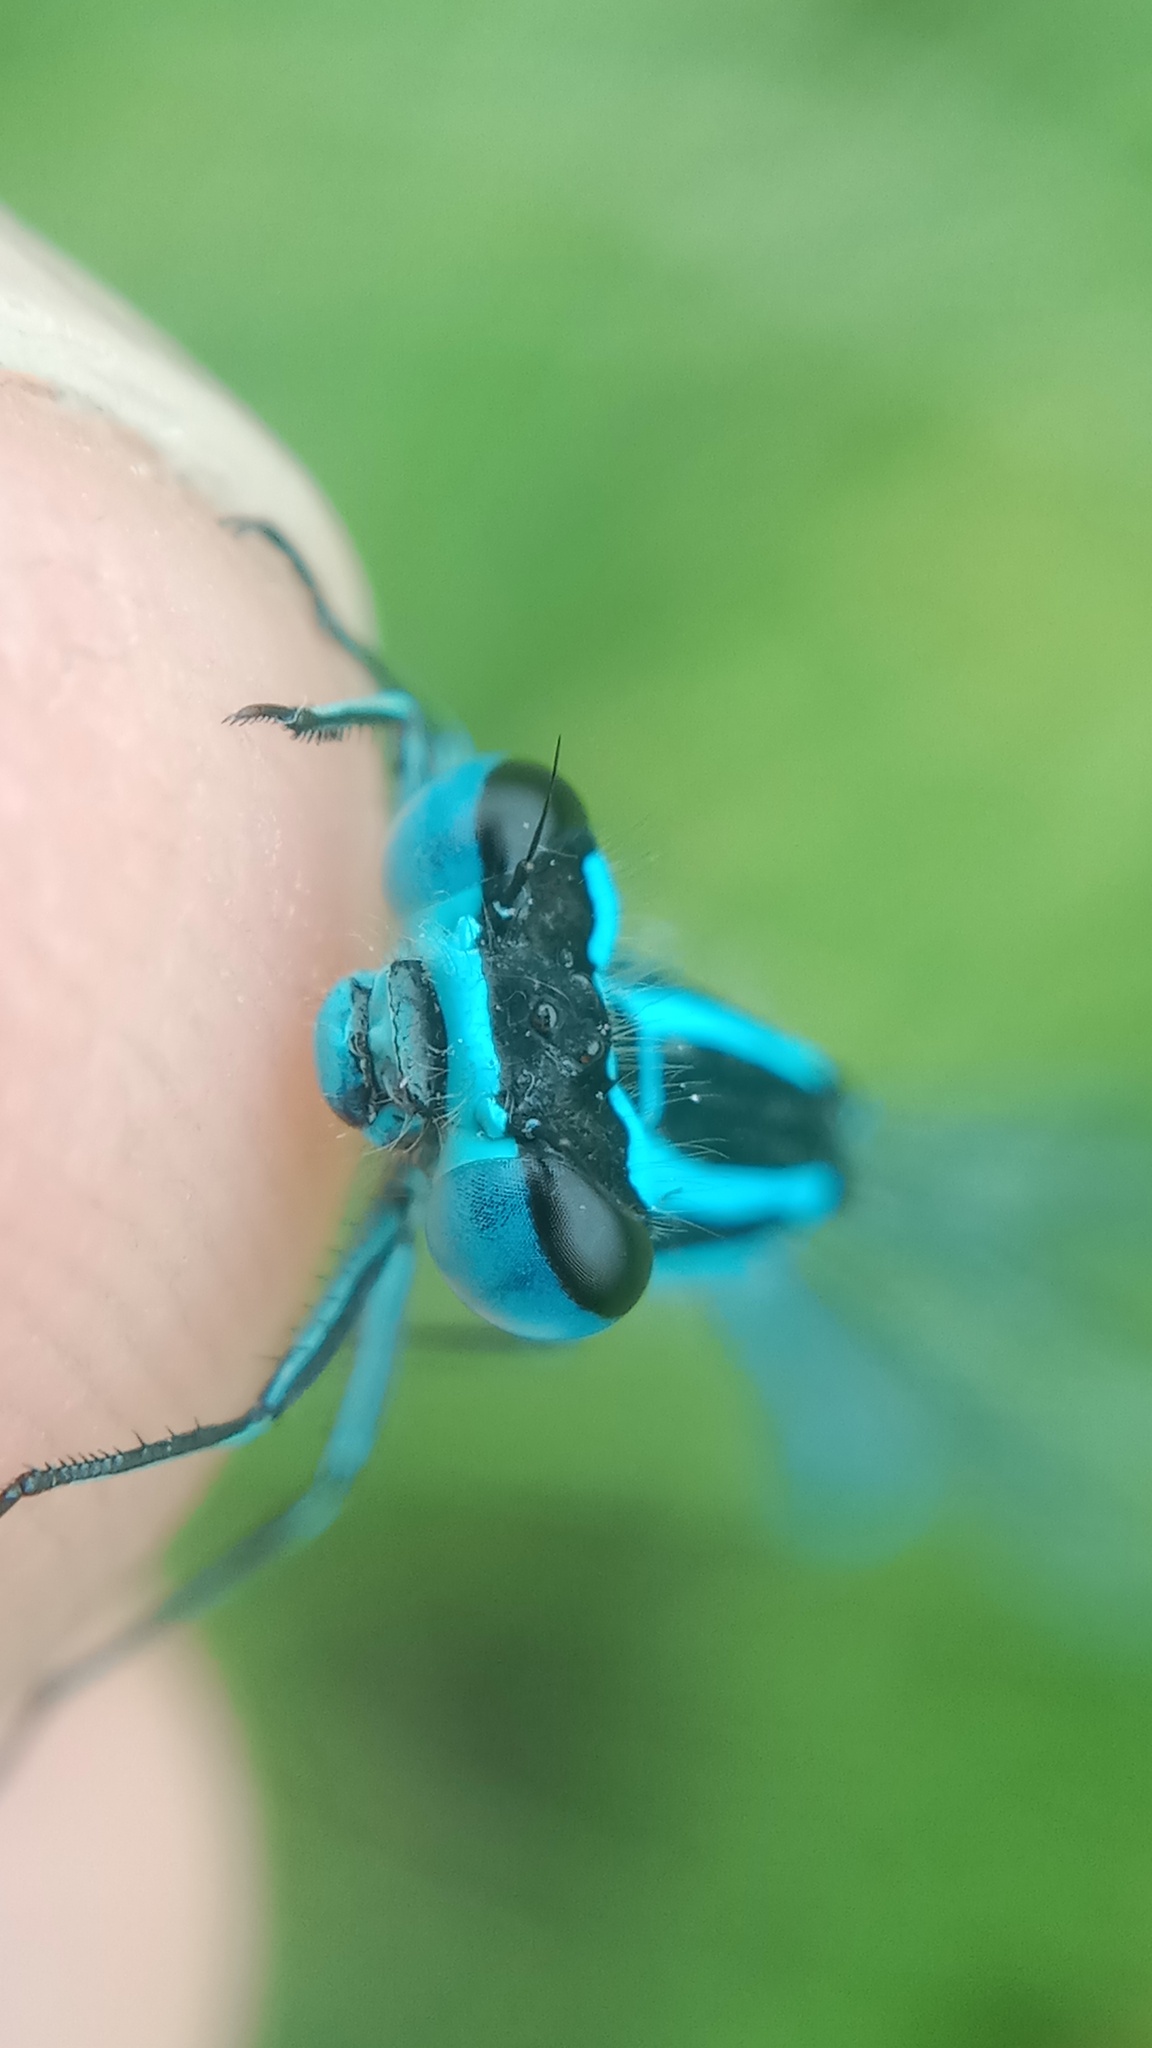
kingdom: Animalia
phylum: Arthropoda
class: Insecta
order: Odonata
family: Coenagrionidae
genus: Coenagrion
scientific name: Coenagrion puella
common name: Azure damselfly
